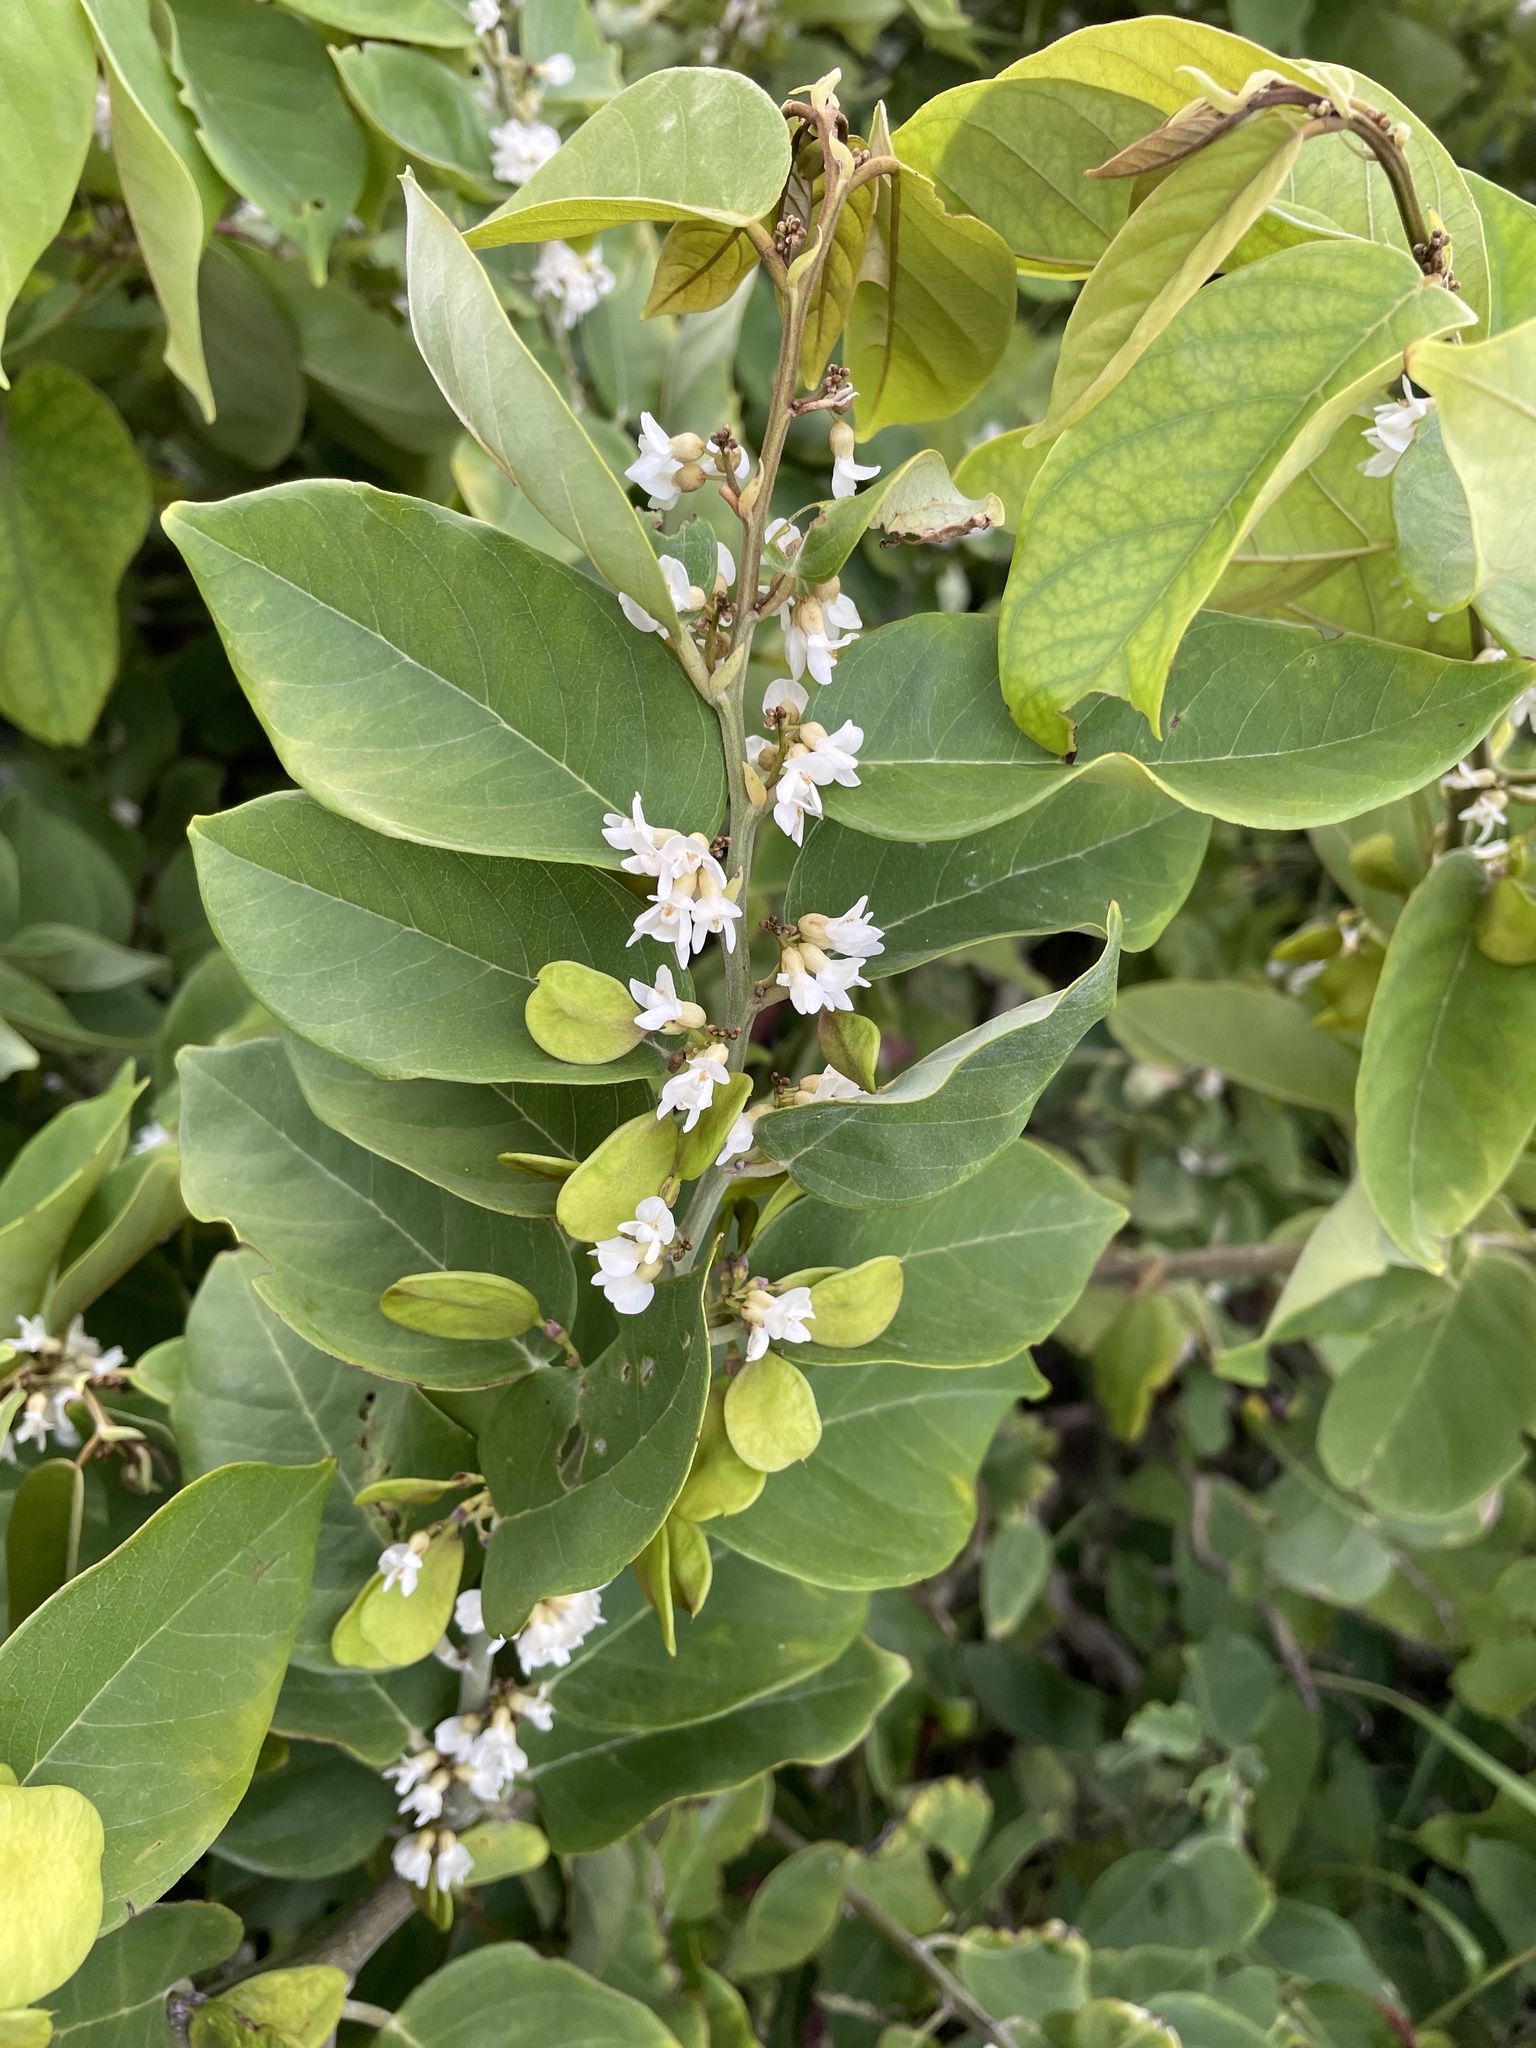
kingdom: Plantae
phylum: Tracheophyta
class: Magnoliopsida
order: Fabales
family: Fabaceae
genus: Dalbergia
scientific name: Dalbergia ecastaphyllum
